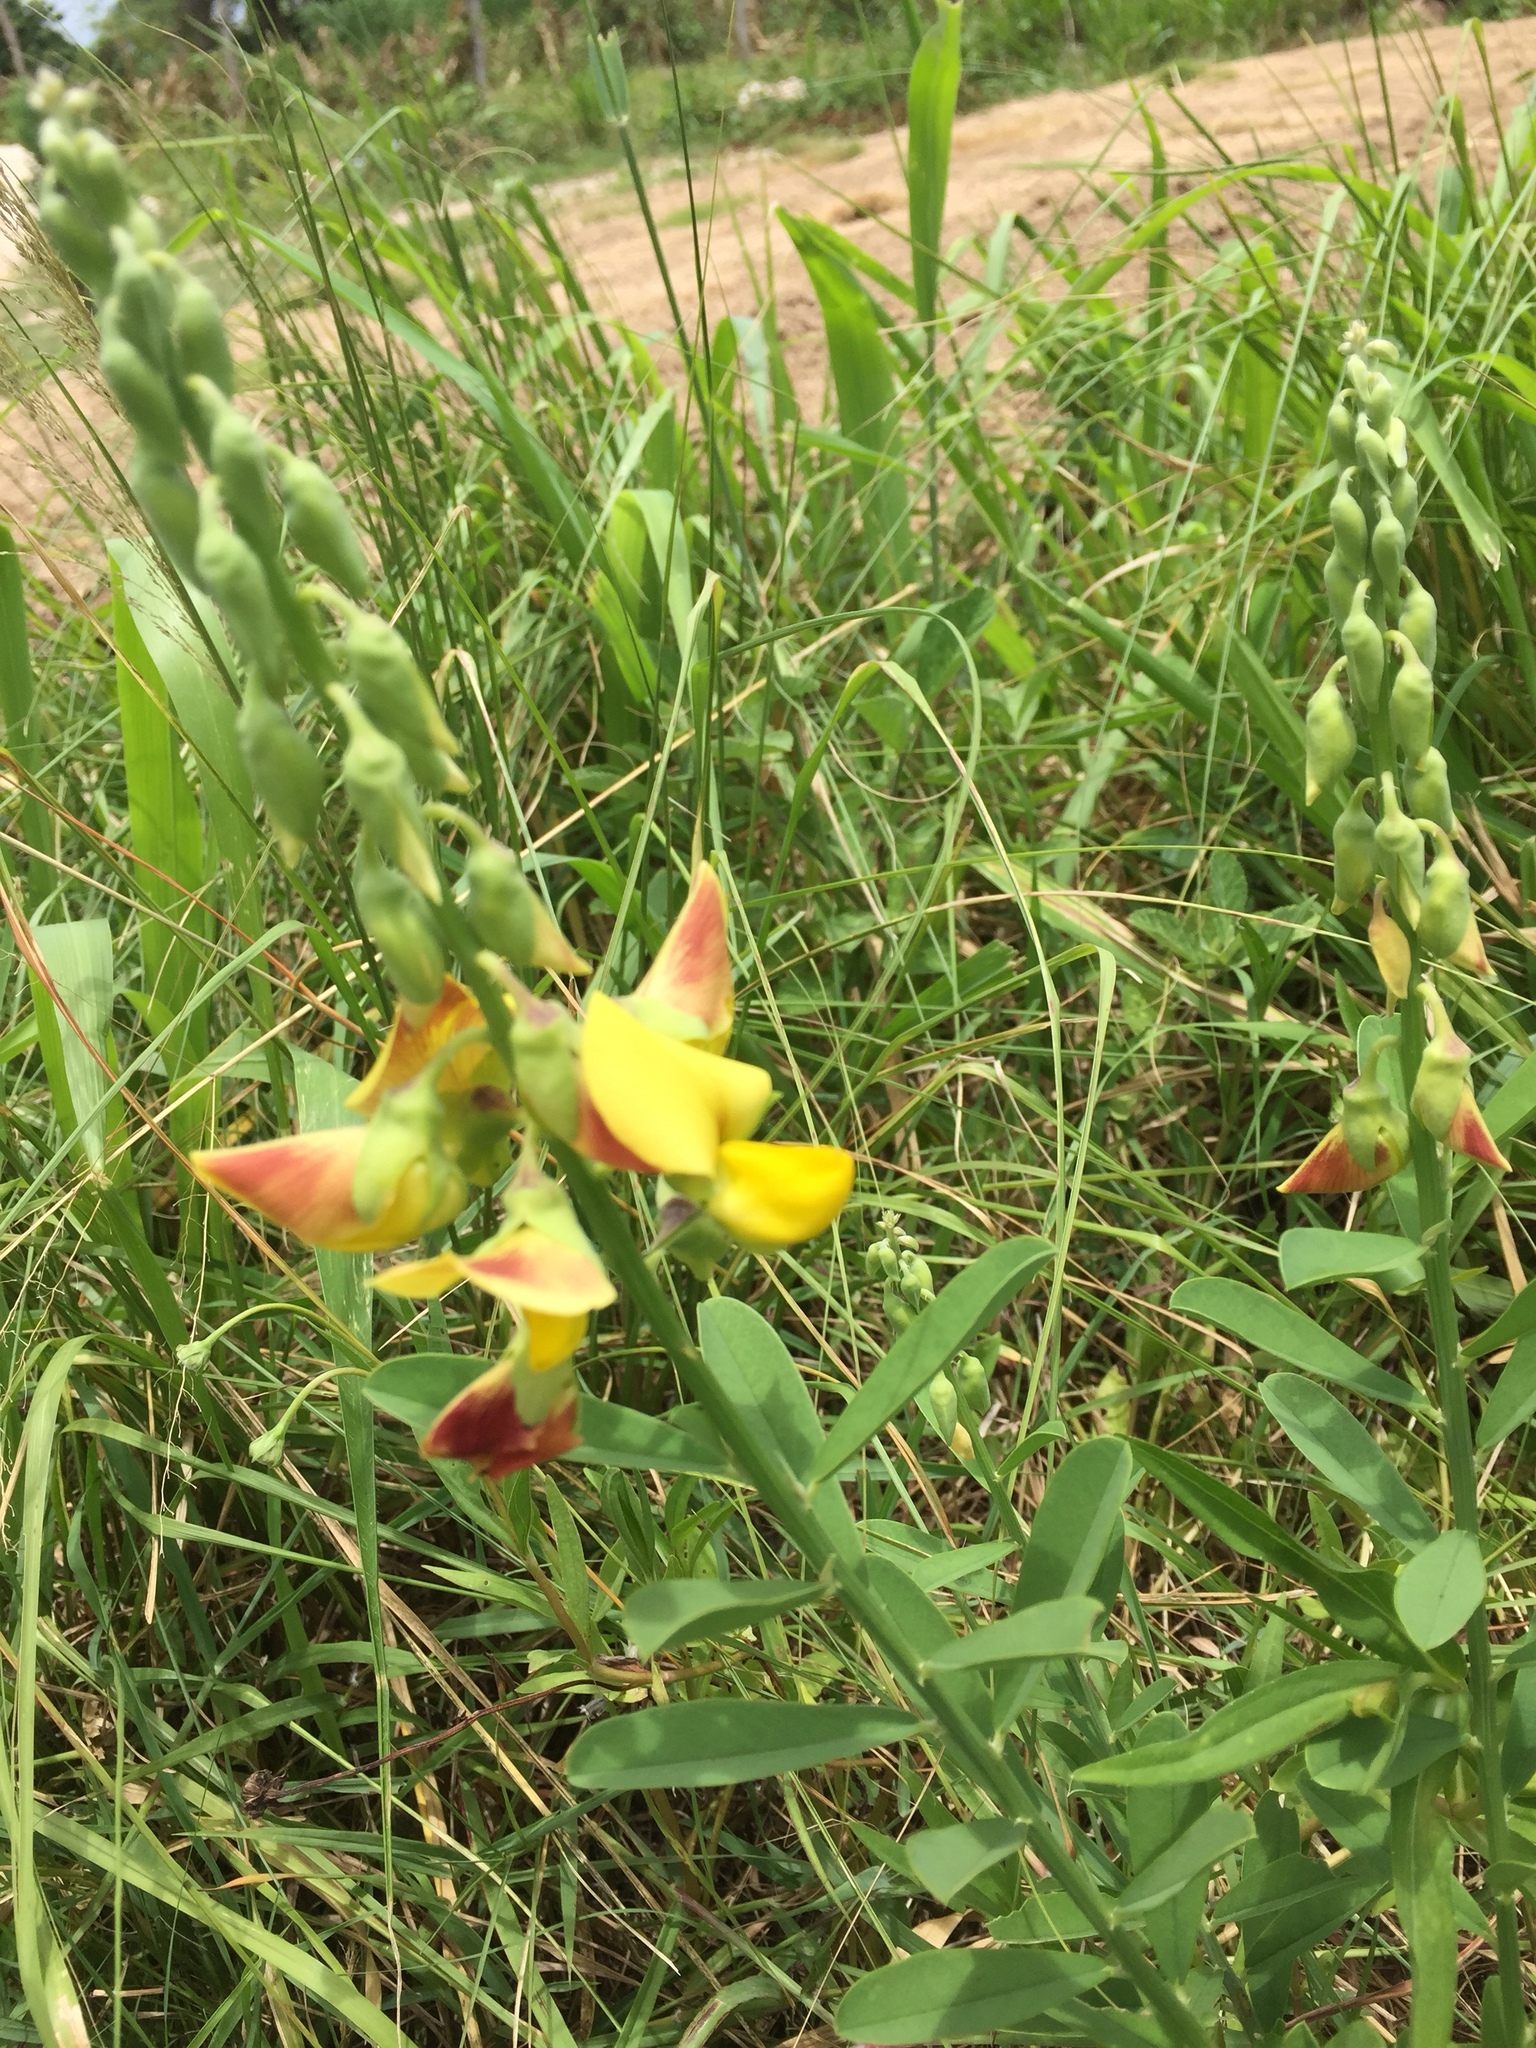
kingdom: Plantae
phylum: Tracheophyta
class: Magnoliopsida
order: Fabales
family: Fabaceae
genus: Crotalaria
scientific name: Crotalaria retusa
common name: Rattleweed
